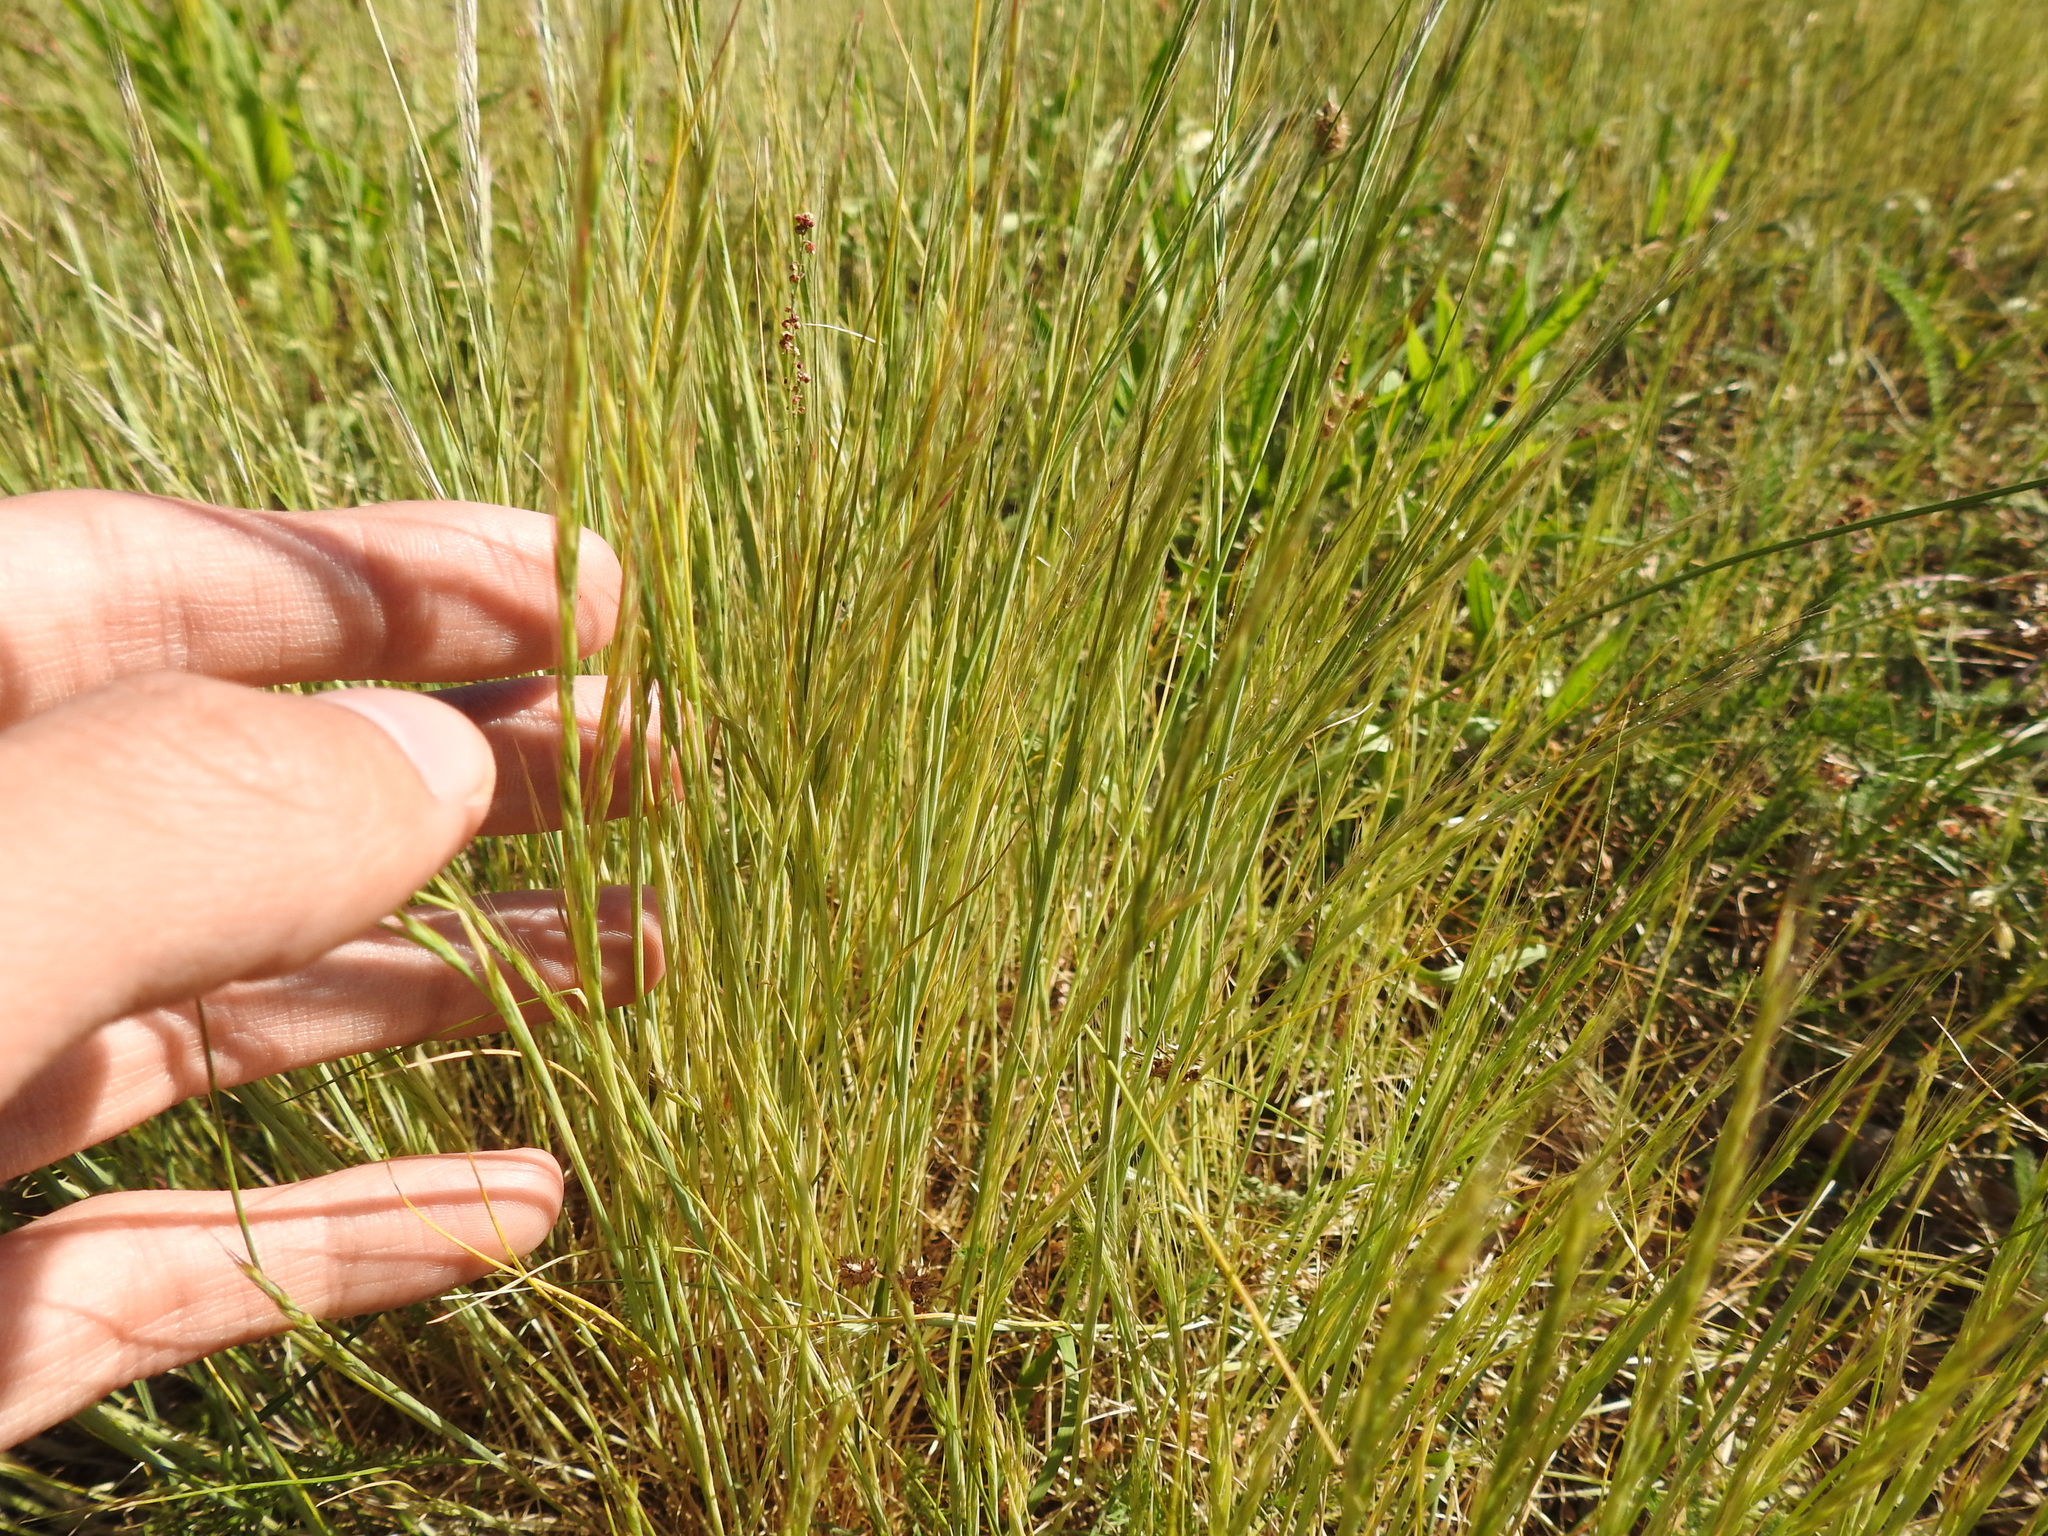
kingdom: Plantae
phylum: Tracheophyta
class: Liliopsida
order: Poales
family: Poaceae
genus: Festuca
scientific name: Festuca myuros
